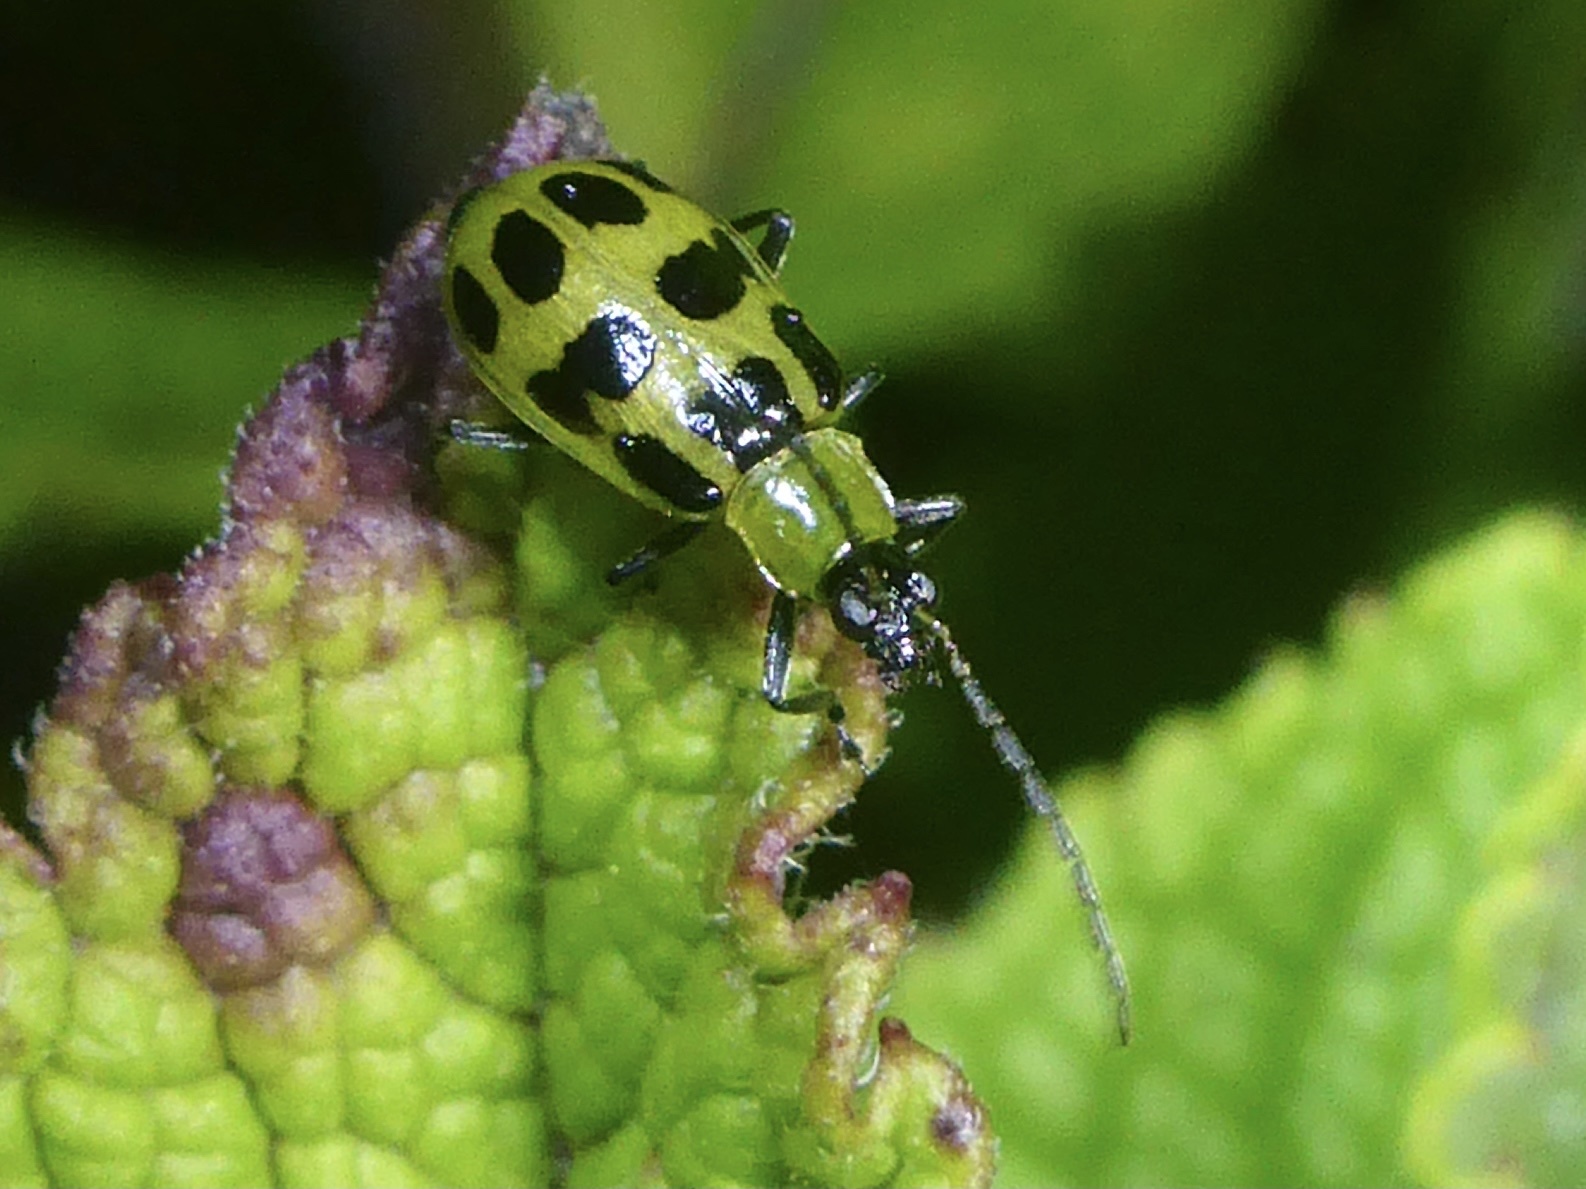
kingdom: Animalia
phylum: Arthropoda
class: Insecta
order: Coleoptera
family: Chrysomelidae
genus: Diabrotica
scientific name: Diabrotica undecimpunctata
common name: Spotted cucumber beetle
